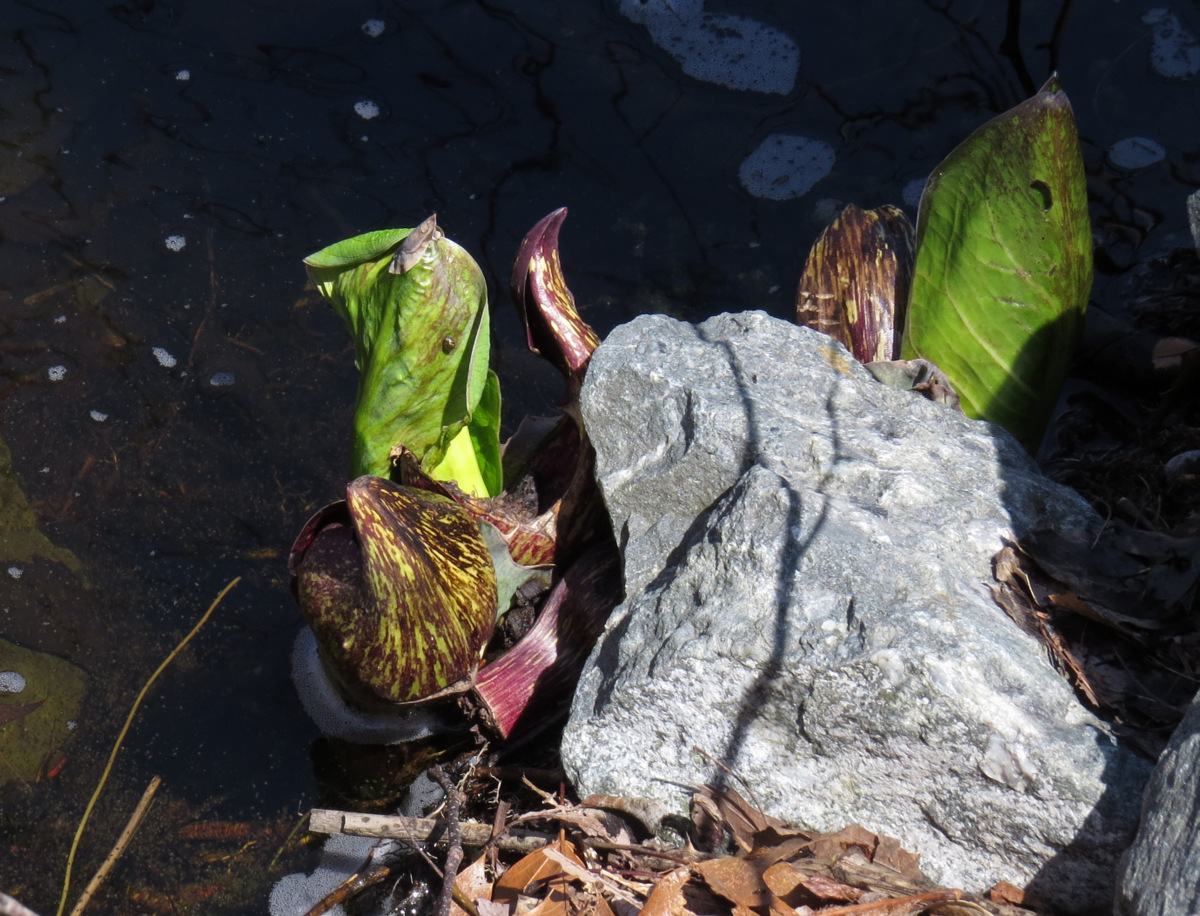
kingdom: Plantae
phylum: Tracheophyta
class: Liliopsida
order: Alismatales
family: Araceae
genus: Symplocarpus
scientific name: Symplocarpus foetidus
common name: Eastern skunk cabbage
